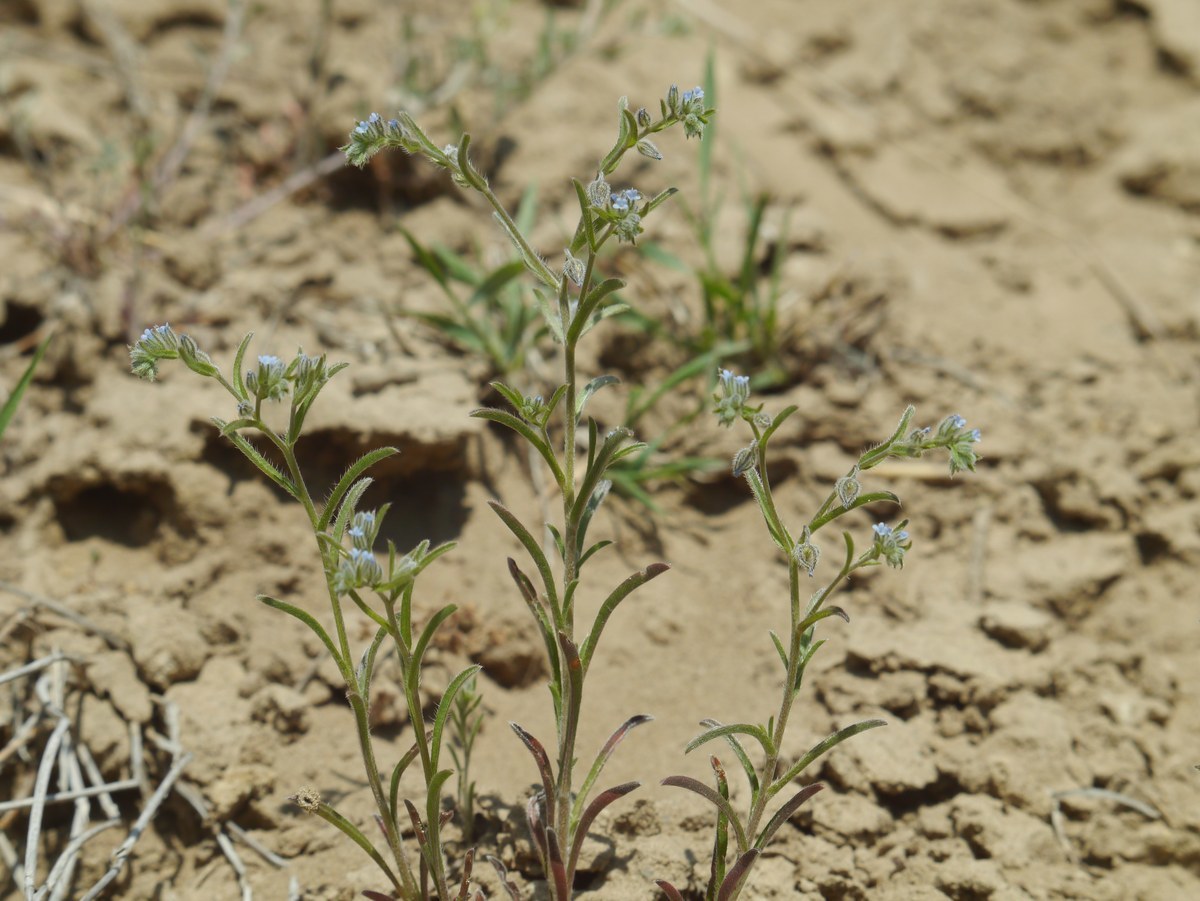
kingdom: Plantae
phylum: Tracheophyta
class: Magnoliopsida
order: Boraginales
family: Boraginaceae
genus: Lappula
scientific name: Lappula squarrosa
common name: European stickseed
